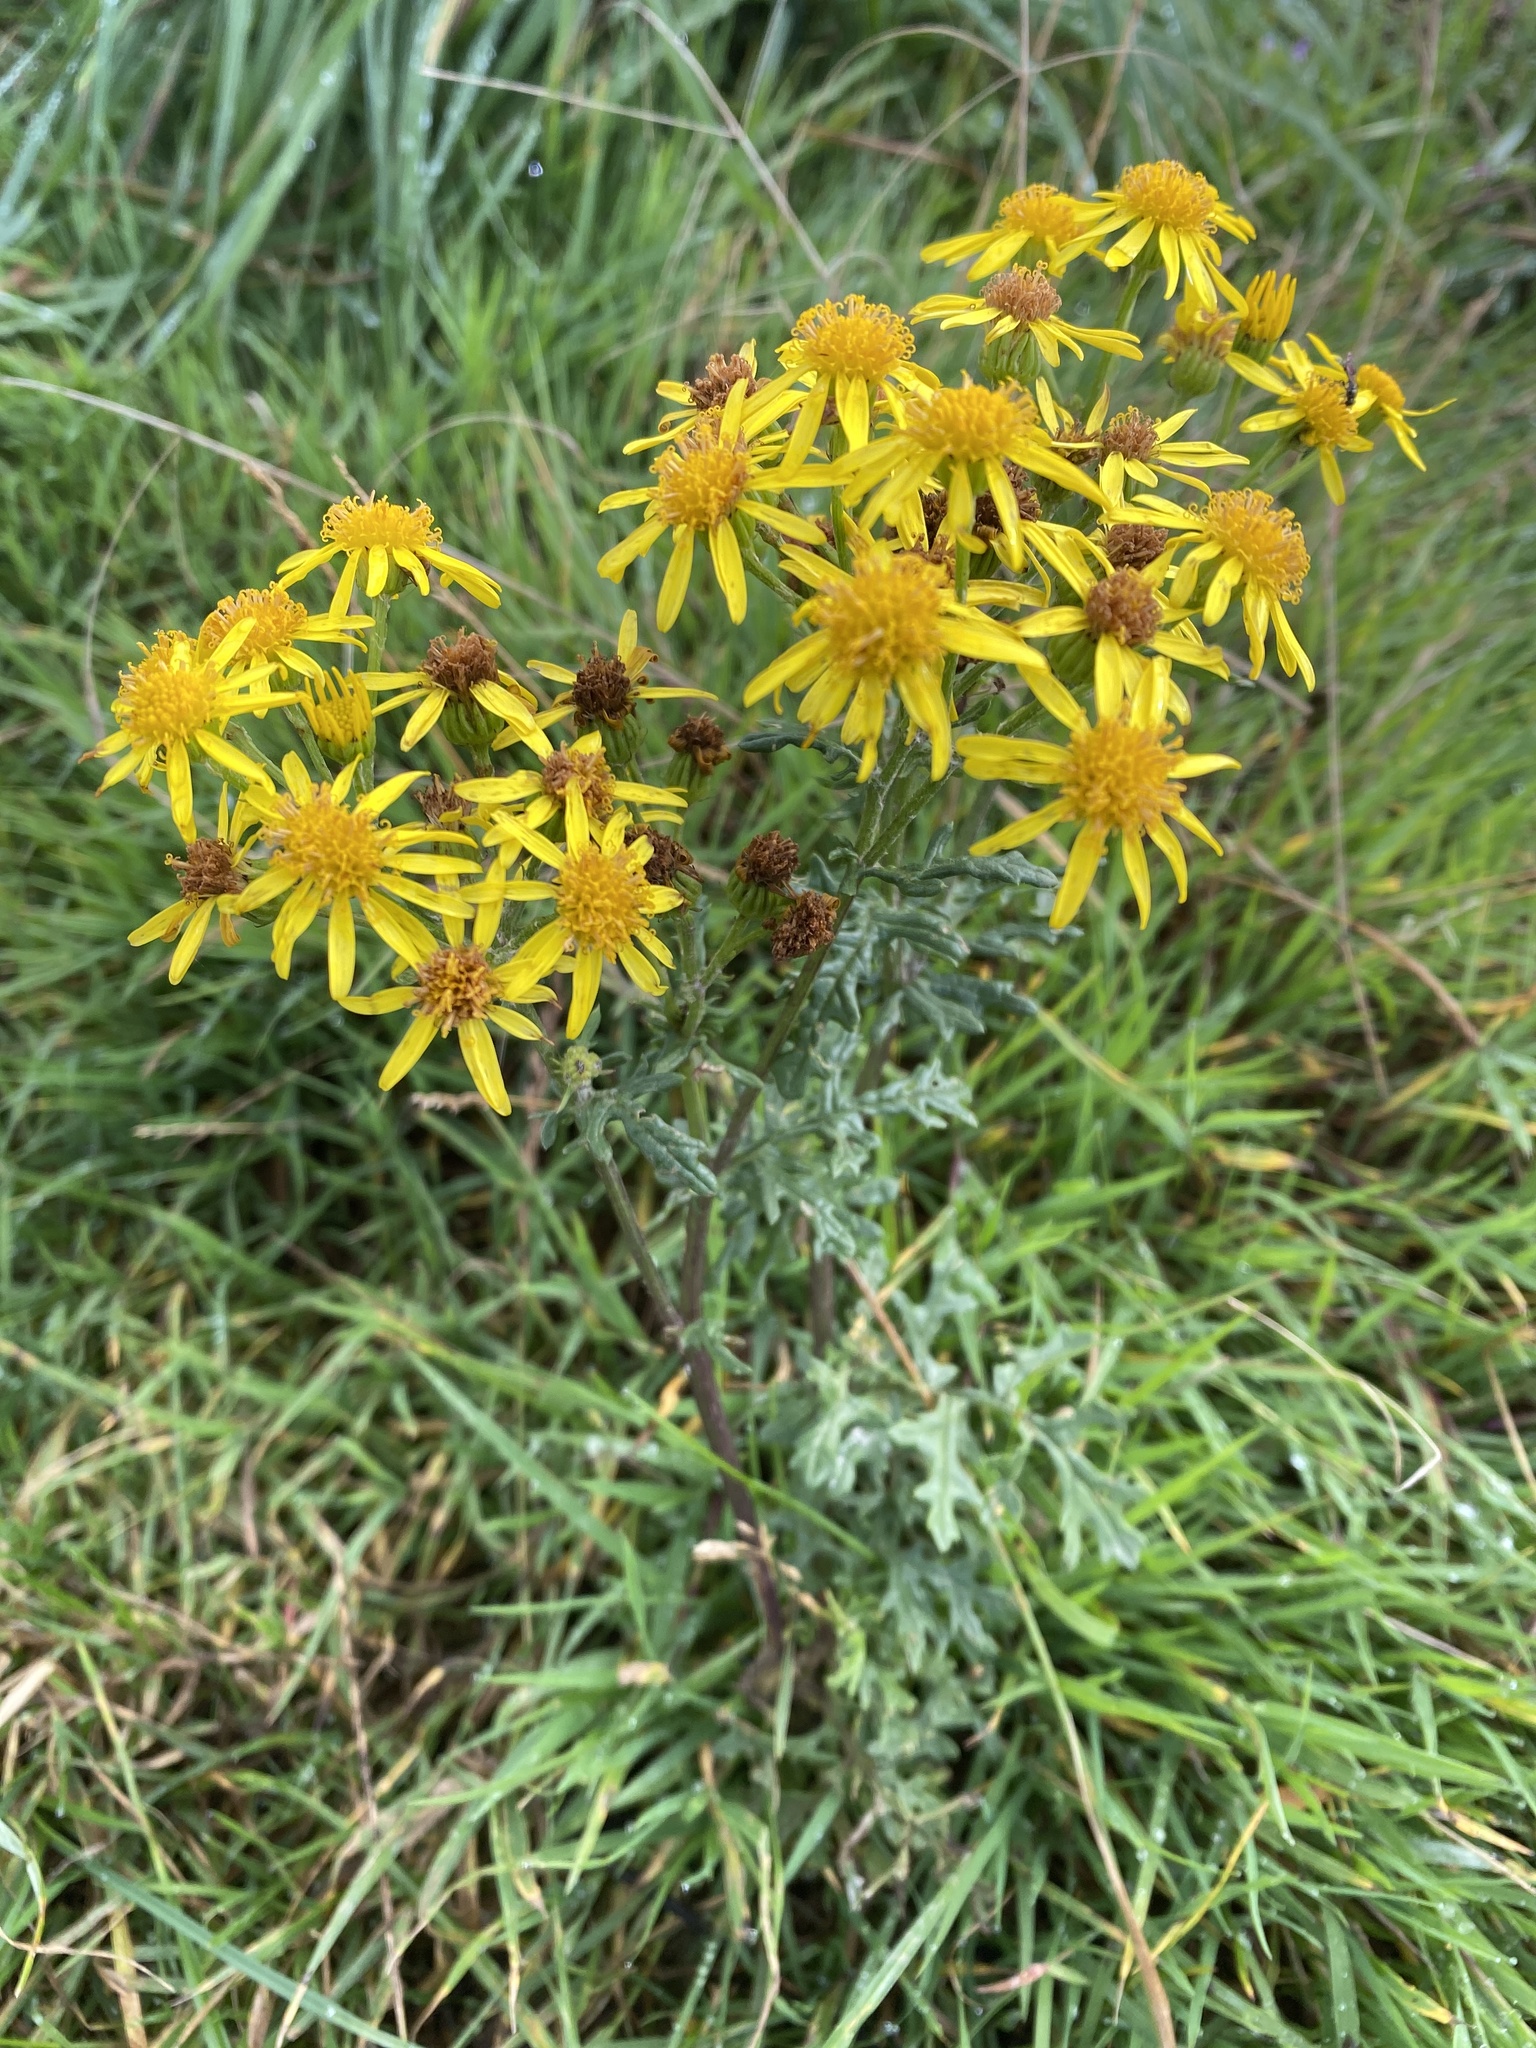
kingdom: Plantae
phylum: Tracheophyta
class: Magnoliopsida
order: Asterales
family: Asteraceae
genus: Jacobaea
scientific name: Jacobaea vulgaris
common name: Stinking willie
